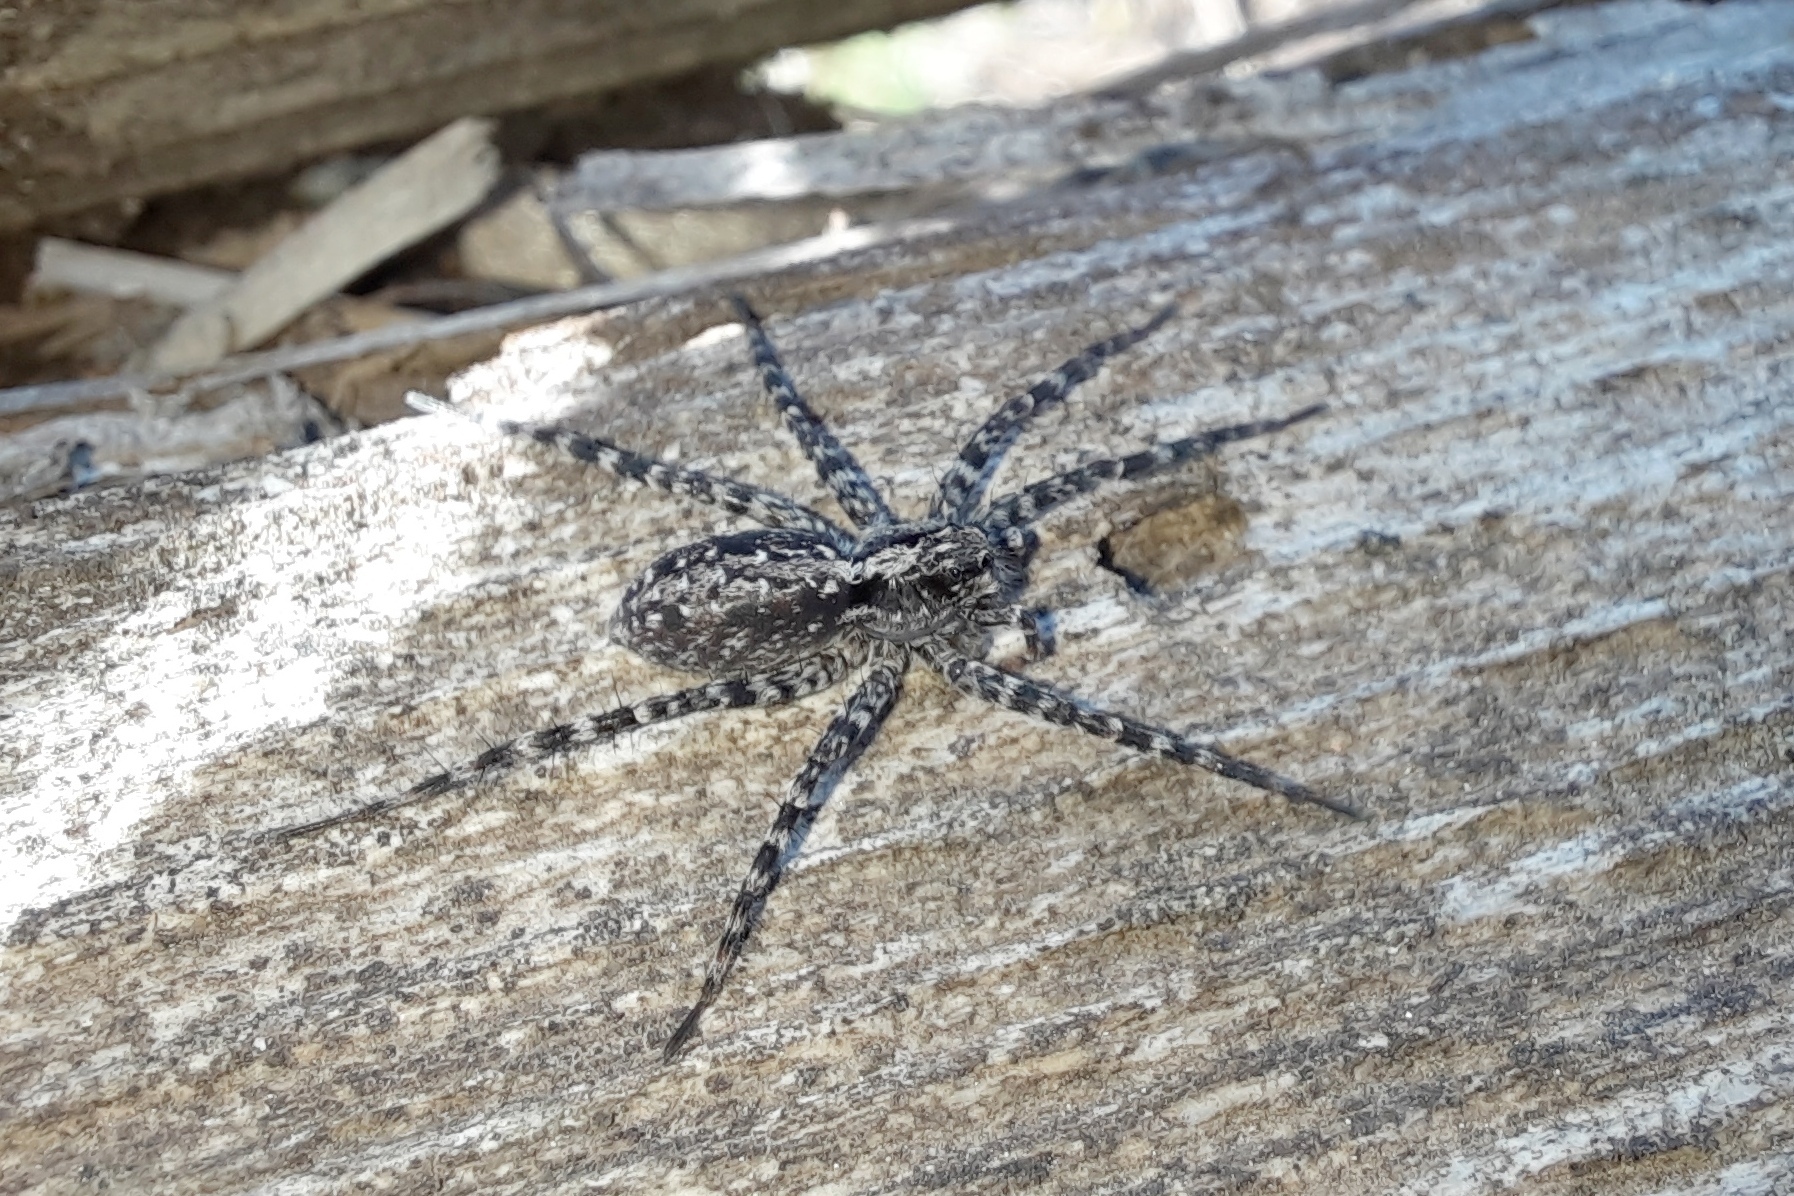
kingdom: Animalia
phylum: Arthropoda
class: Arachnida
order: Araneae
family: Lycosidae
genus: Acantholycosa
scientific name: Acantholycosa lignaria
